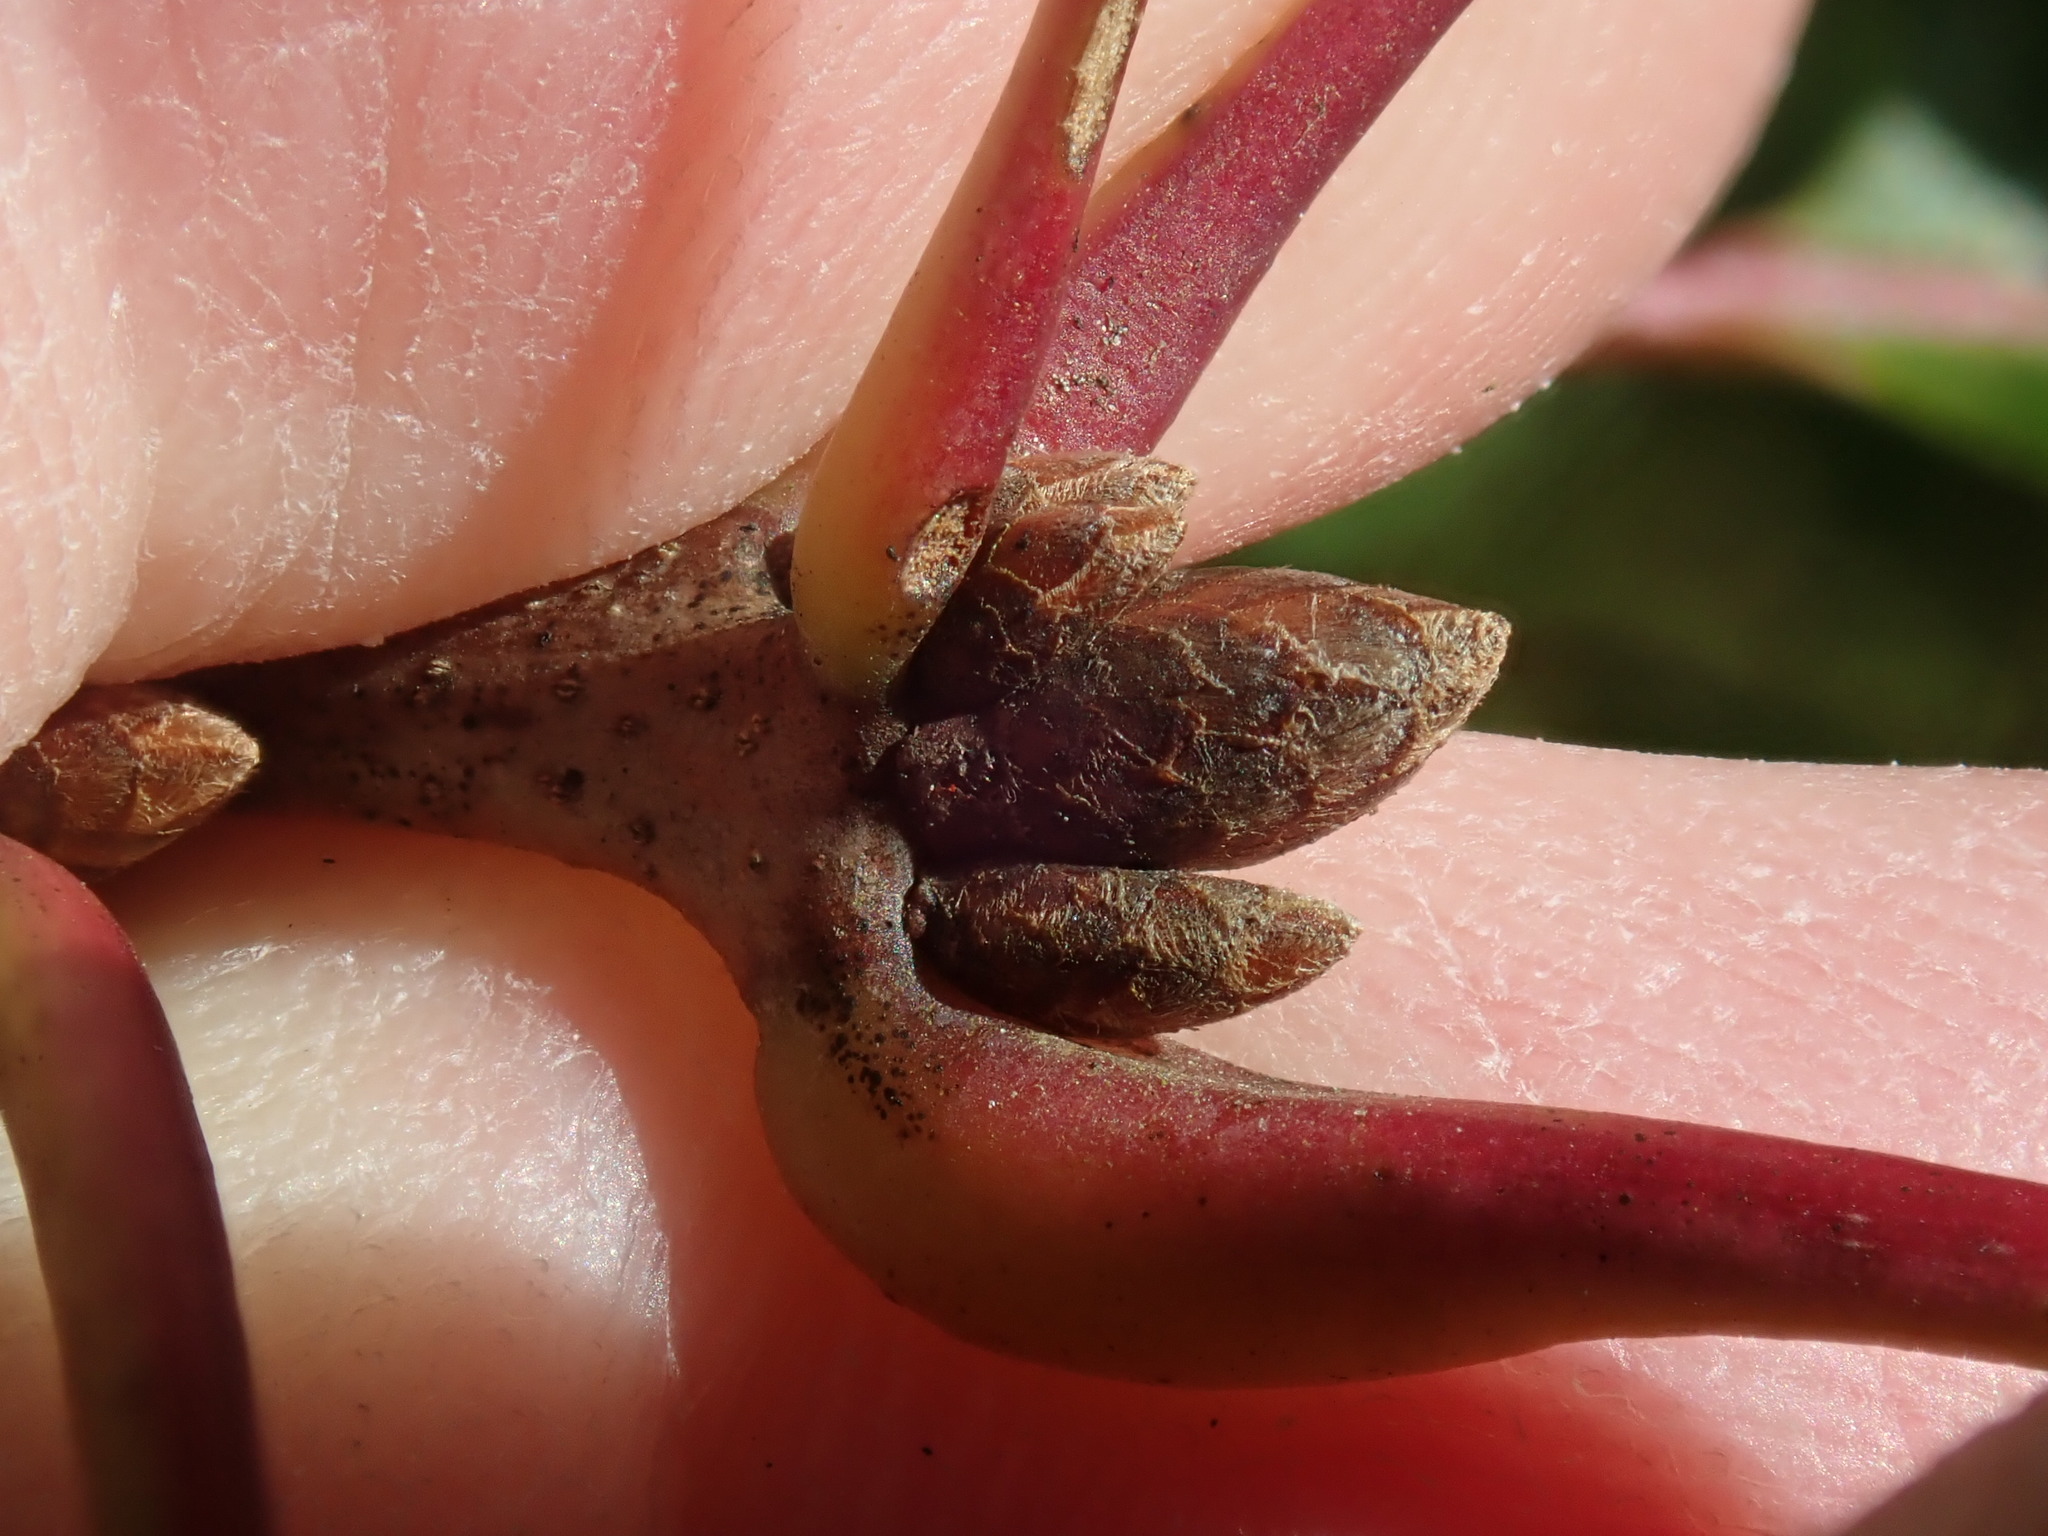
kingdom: Plantae
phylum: Tracheophyta
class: Magnoliopsida
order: Fagales
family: Fagaceae
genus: Quercus
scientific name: Quercus coccinea
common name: Scarlet oak
